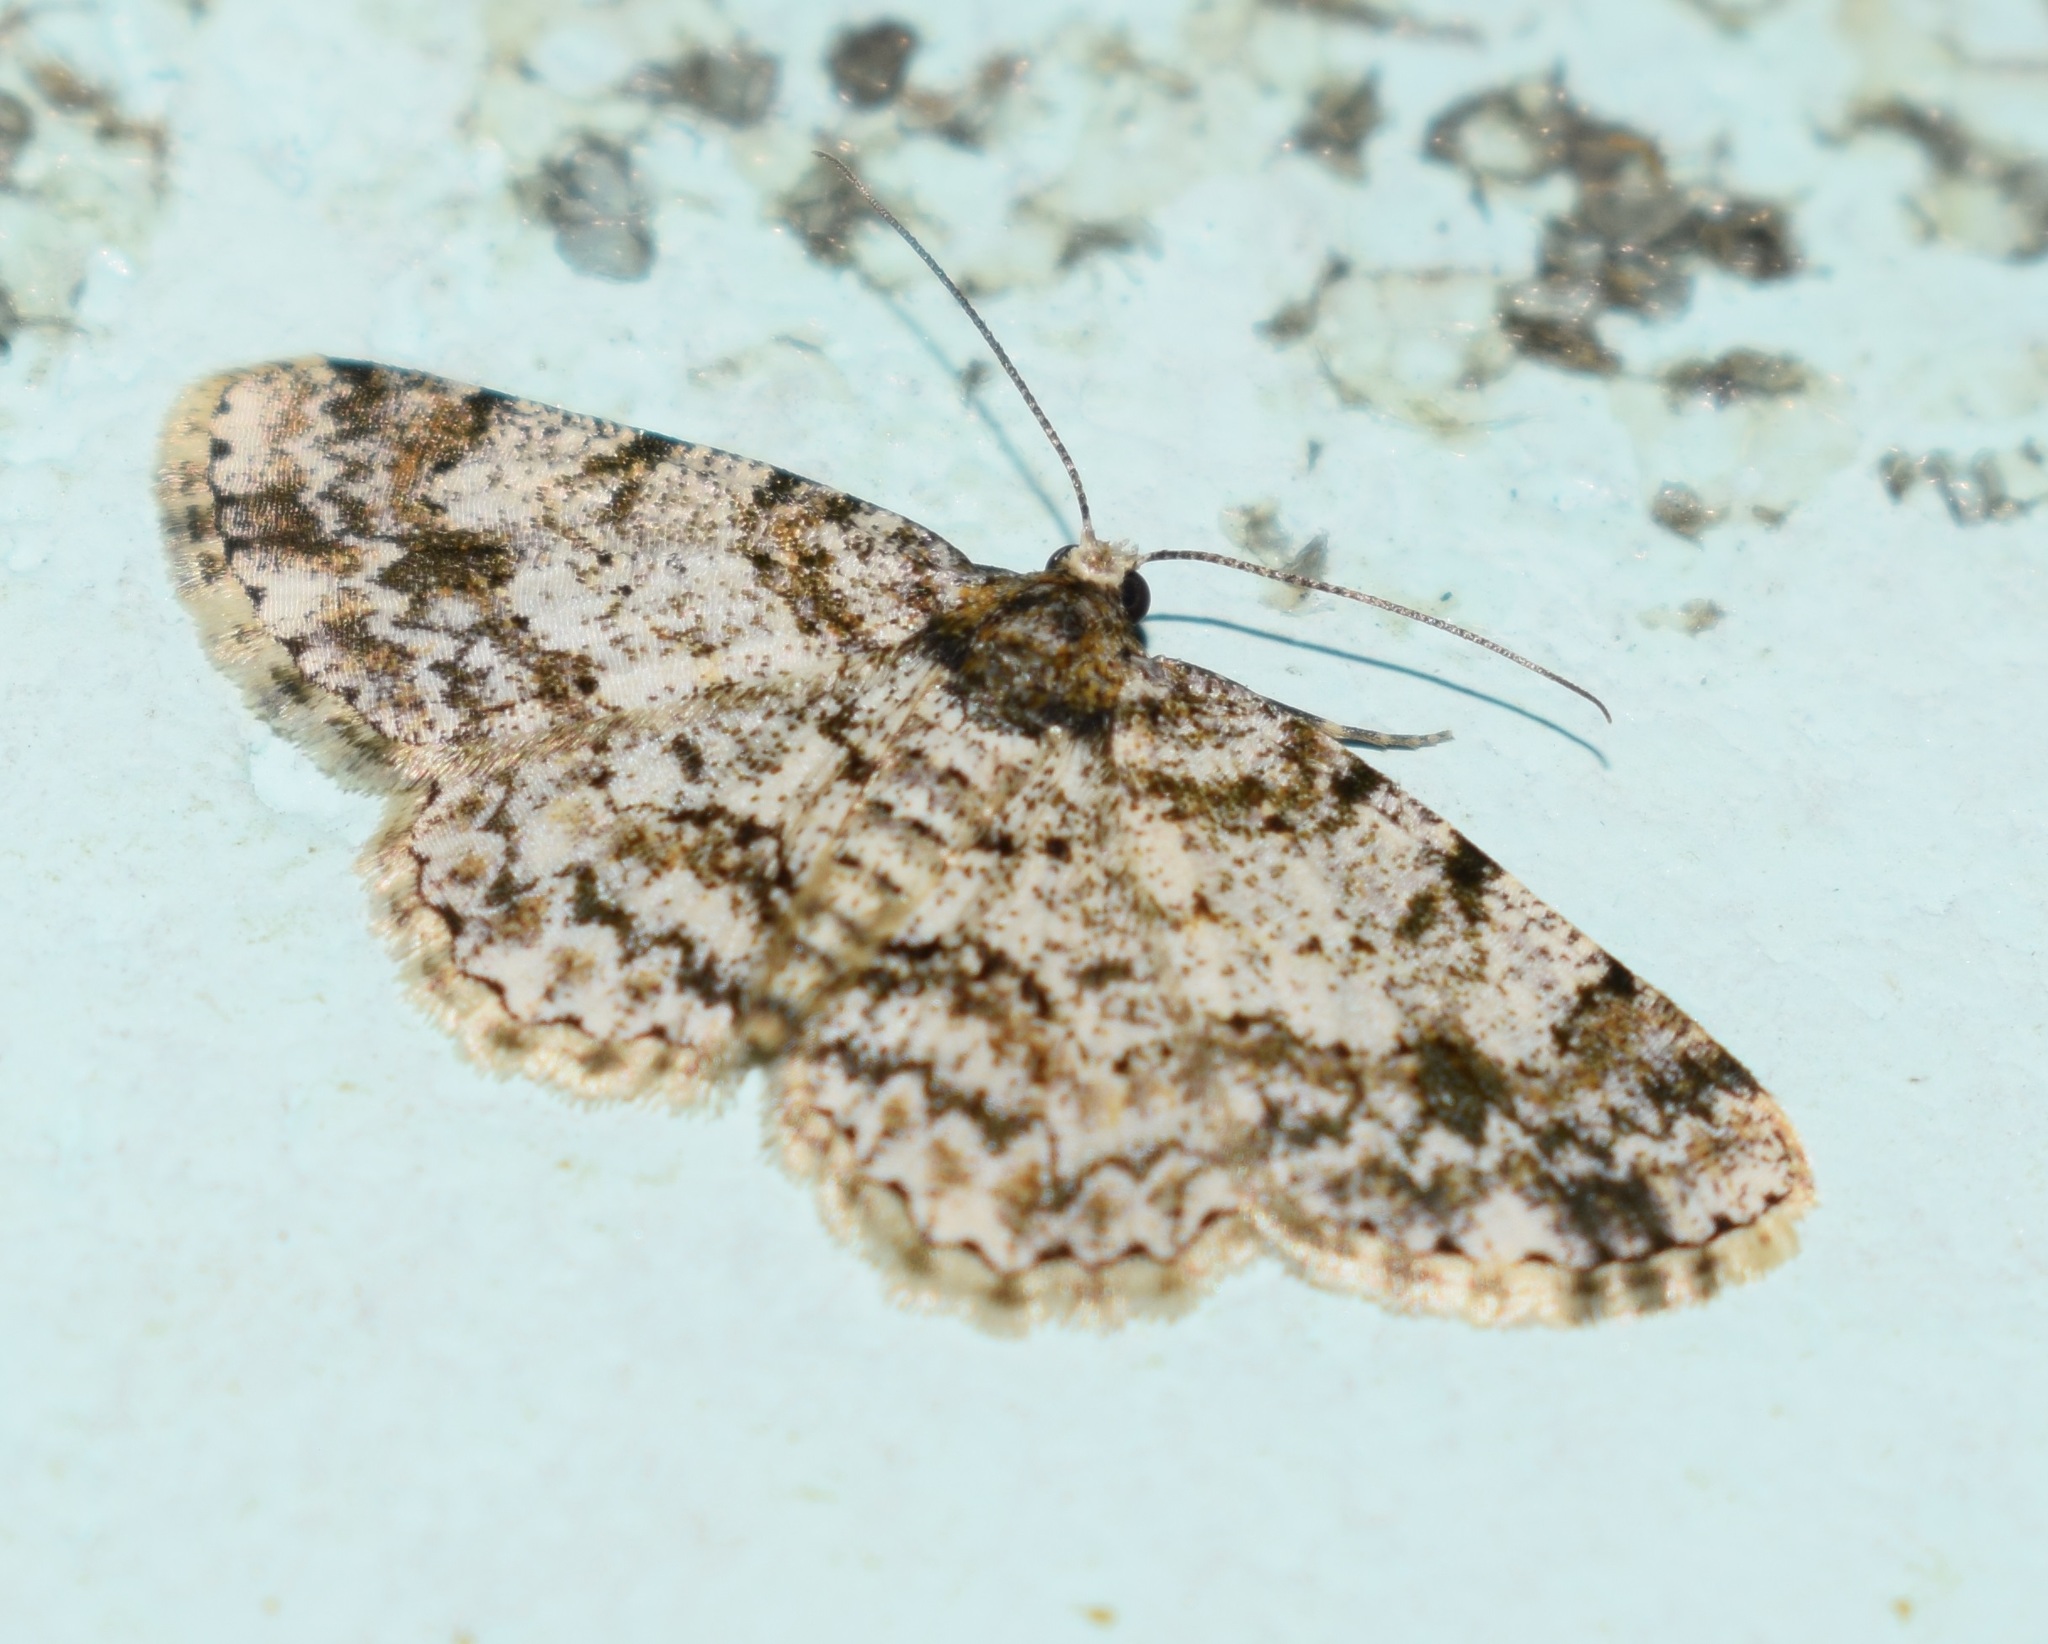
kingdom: Animalia
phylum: Arthropoda
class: Insecta
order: Lepidoptera
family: Geometridae
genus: Alcis
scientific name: Alcis nilgirica
